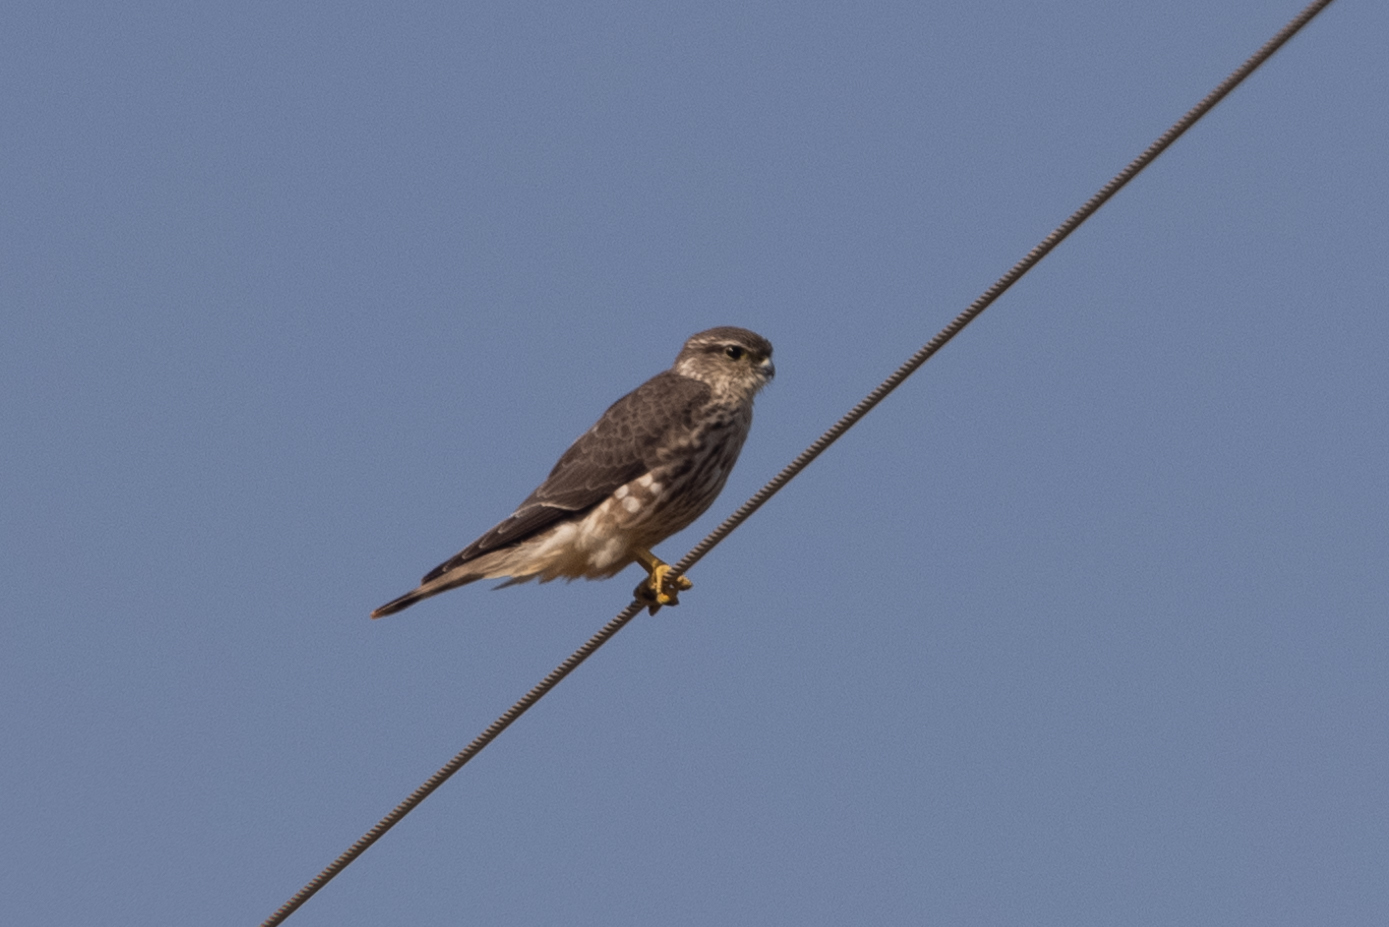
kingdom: Animalia
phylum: Chordata
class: Aves
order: Falconiformes
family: Falconidae
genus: Falco
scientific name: Falco columbarius
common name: Merlin
